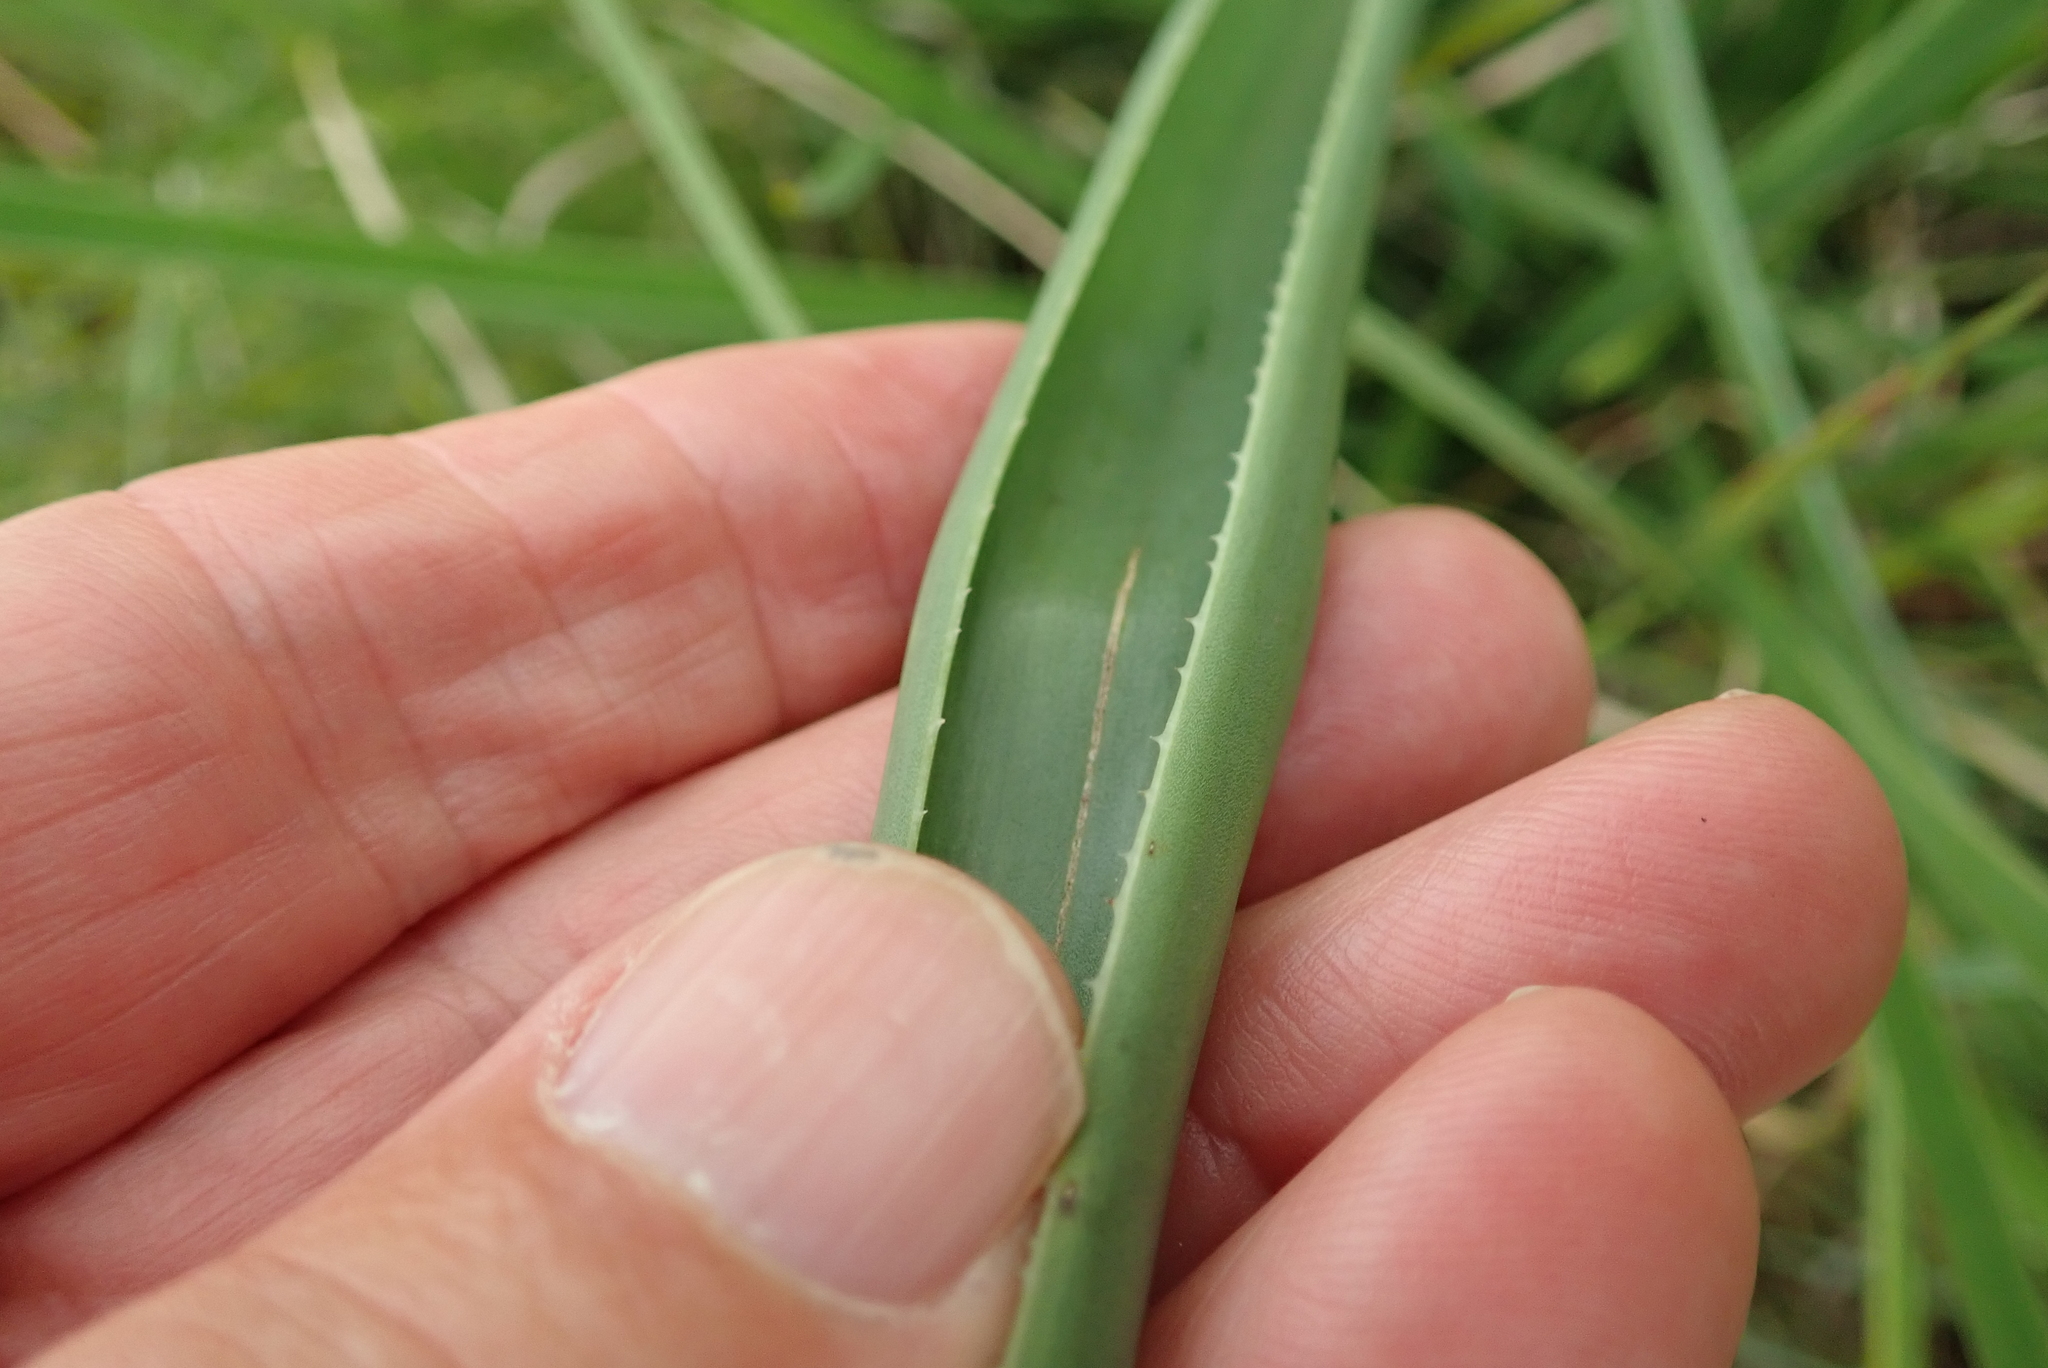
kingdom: Plantae
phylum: Tracheophyta
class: Liliopsida
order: Asparagales
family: Asphodelaceae
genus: Aloe
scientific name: Aloe cooperi
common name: Cooper's aloe
